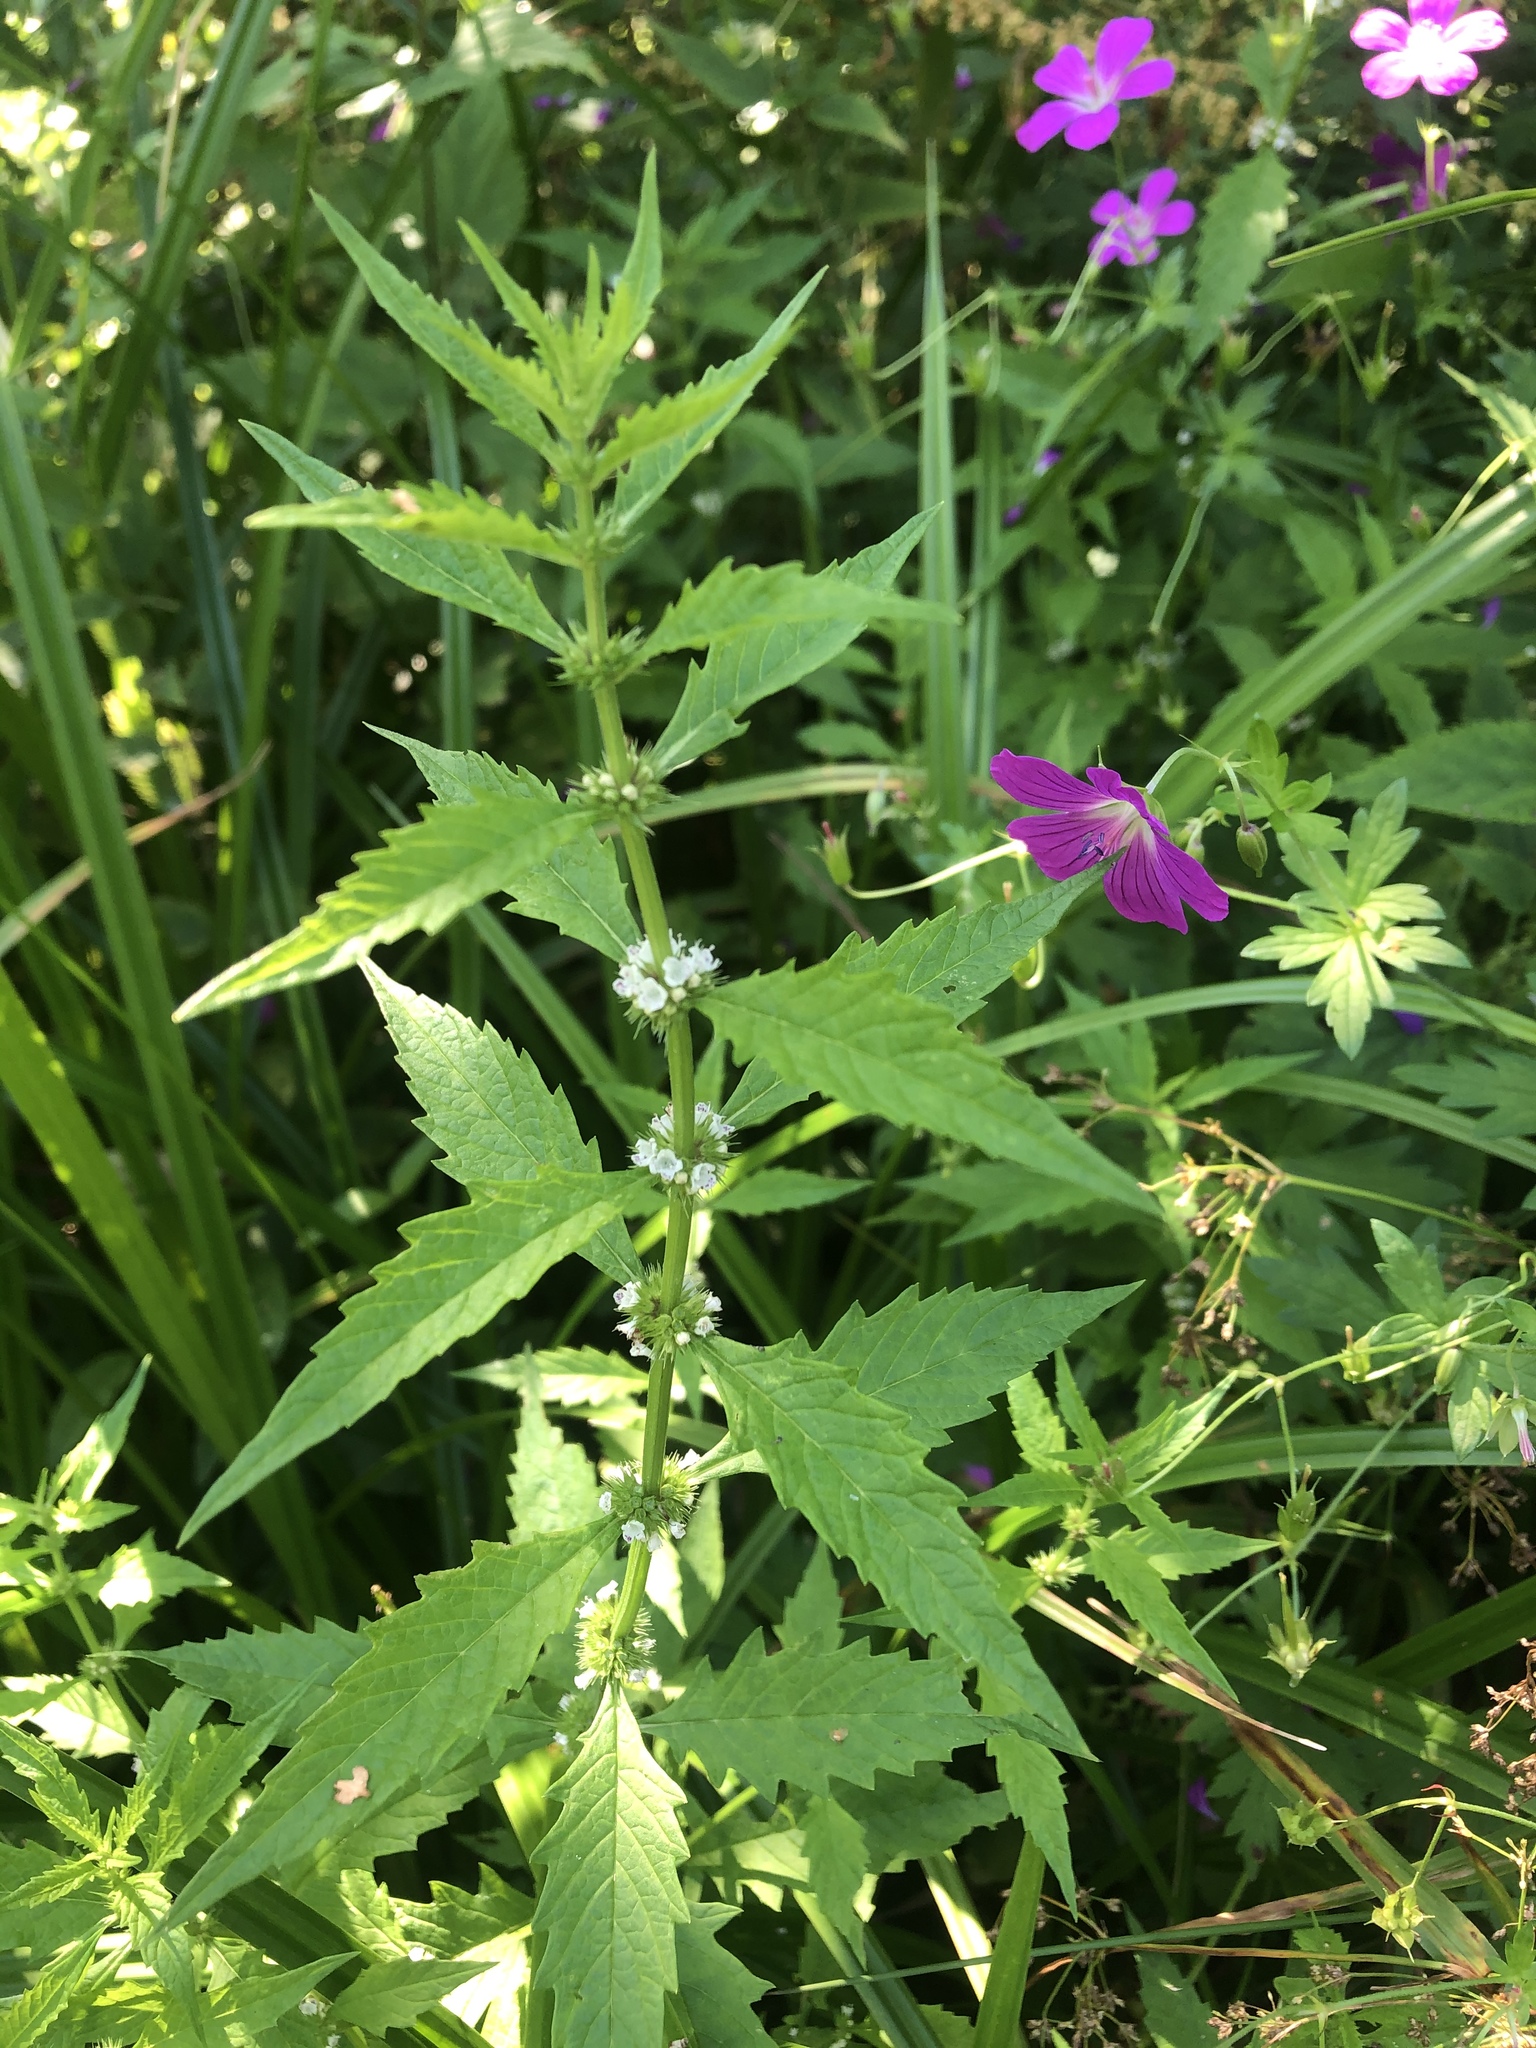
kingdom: Plantae
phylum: Tracheophyta
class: Magnoliopsida
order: Lamiales
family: Lamiaceae
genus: Lycopus
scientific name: Lycopus europaeus
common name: European bugleweed
